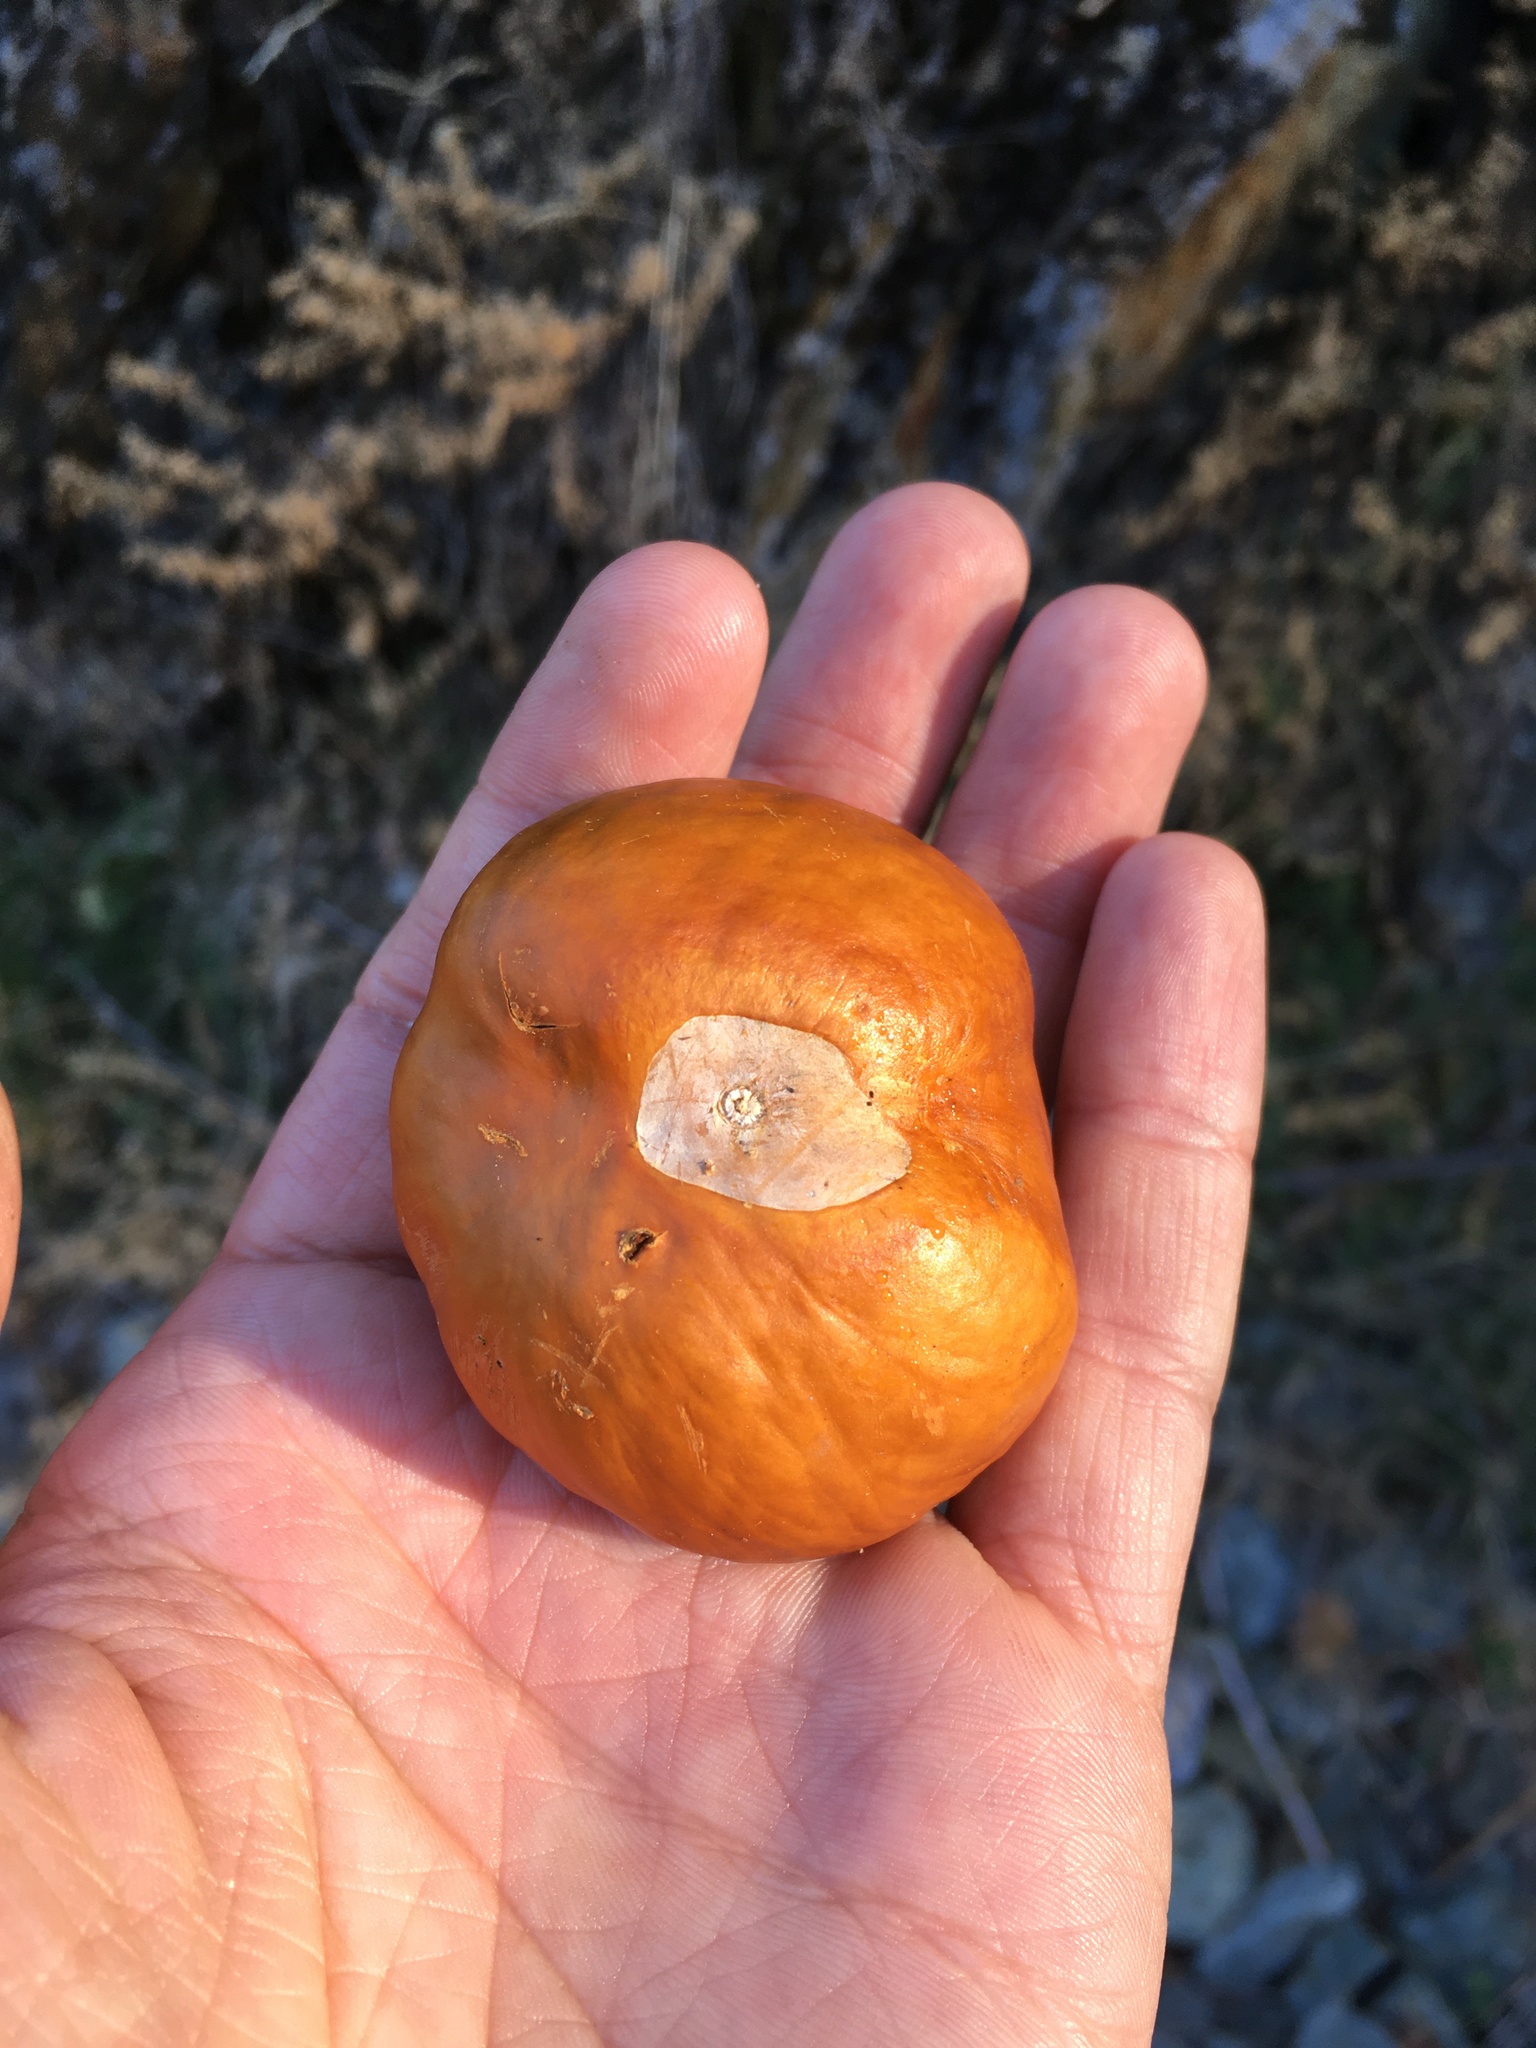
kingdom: Plantae
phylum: Tracheophyta
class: Magnoliopsida
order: Sapindales
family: Sapindaceae
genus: Aesculus
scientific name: Aesculus californica
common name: California buckeye
